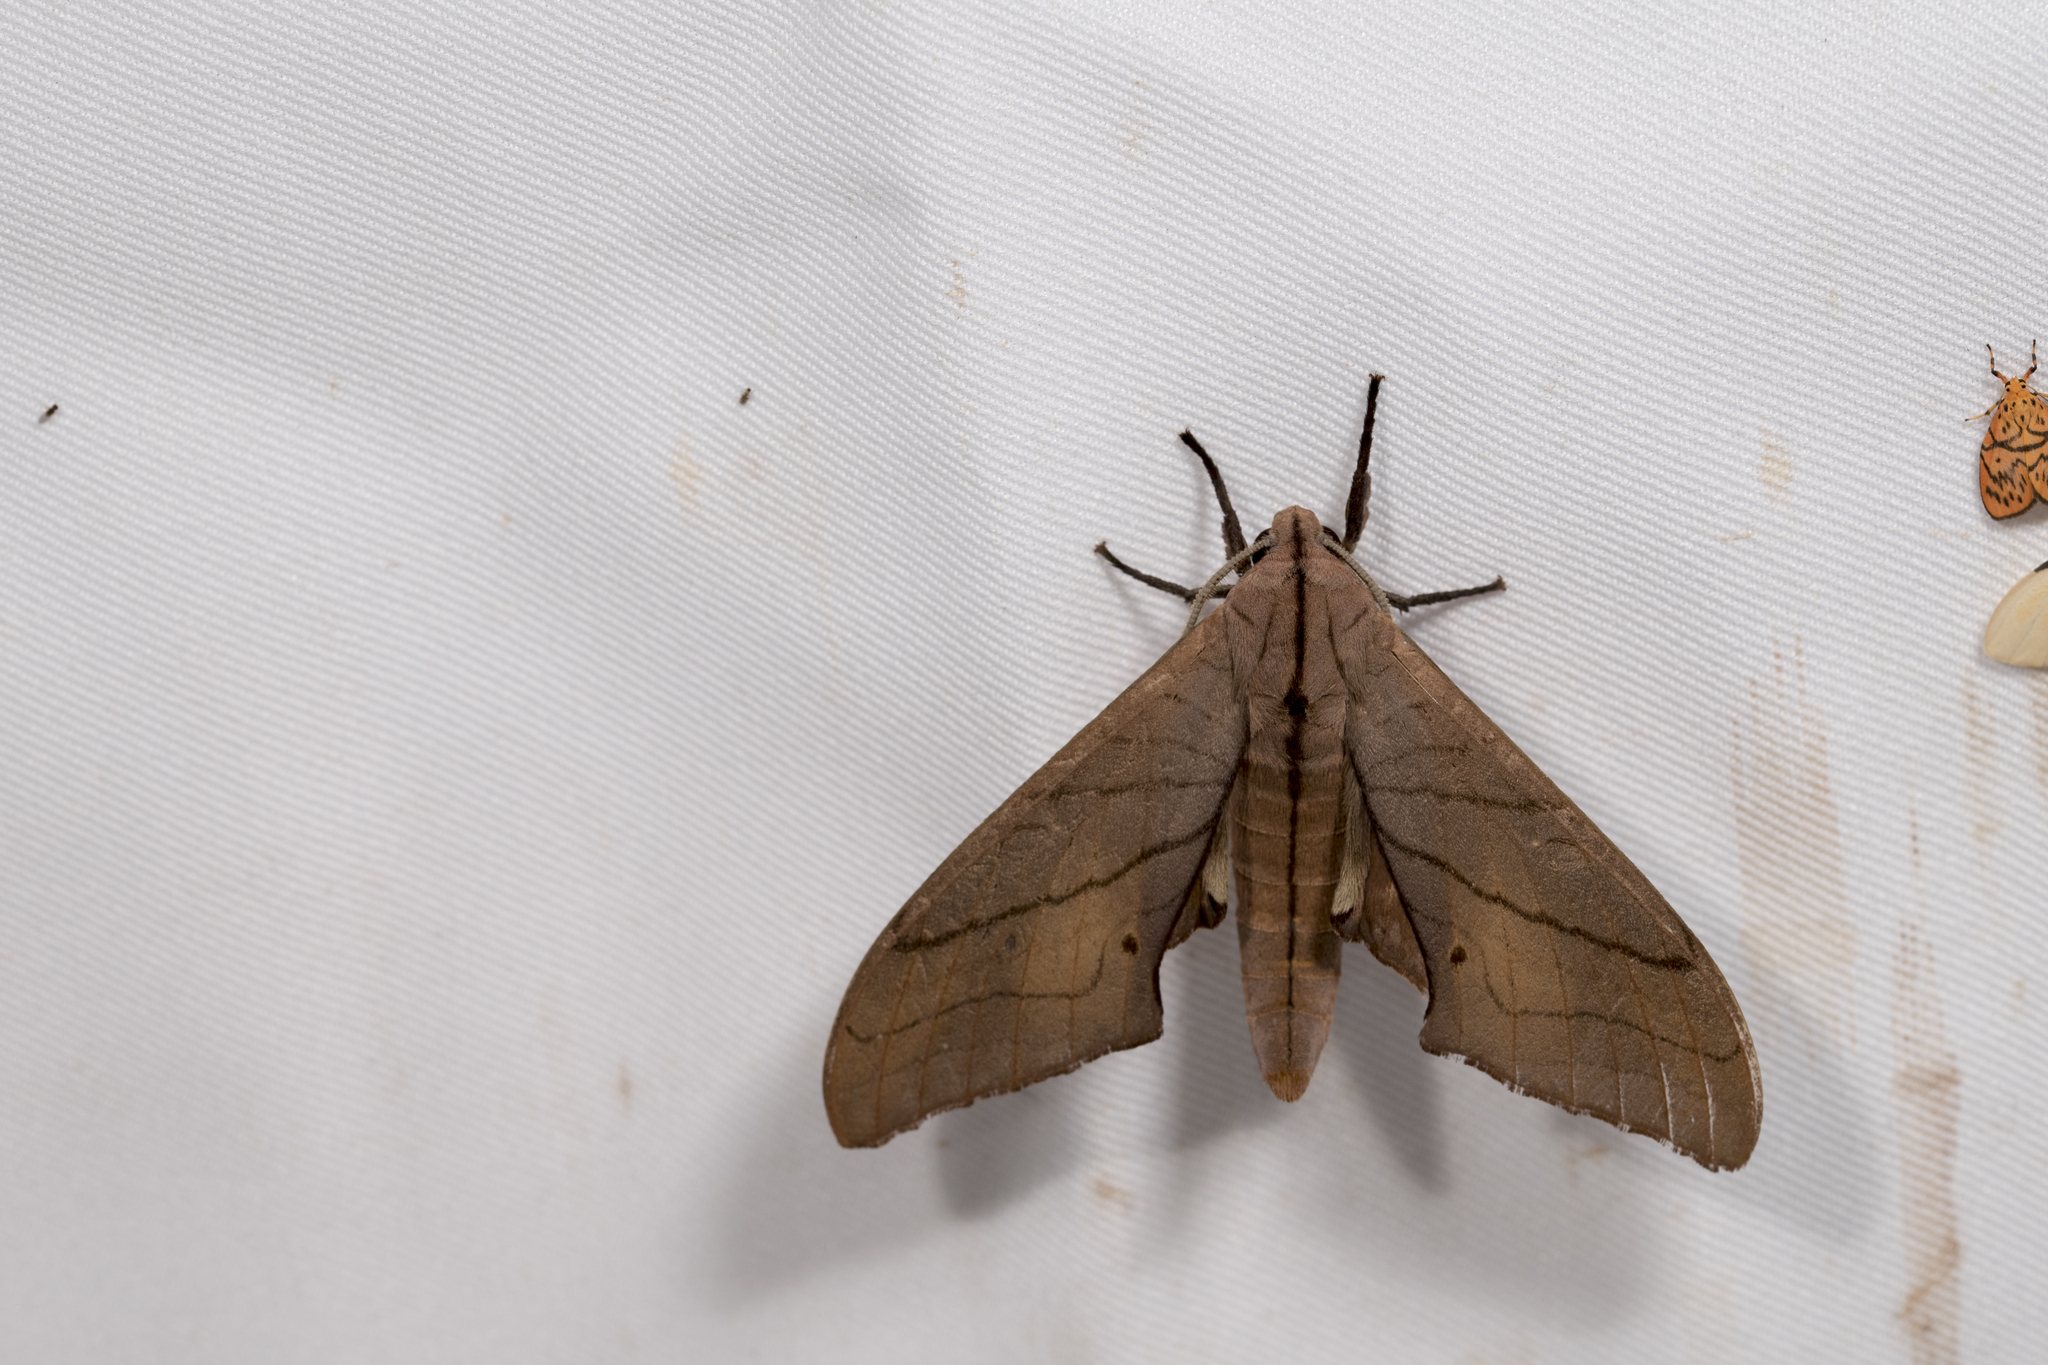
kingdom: Animalia
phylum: Arthropoda
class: Insecta
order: Lepidoptera
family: Sphingidae
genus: Marumba
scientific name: Marumba cristata
